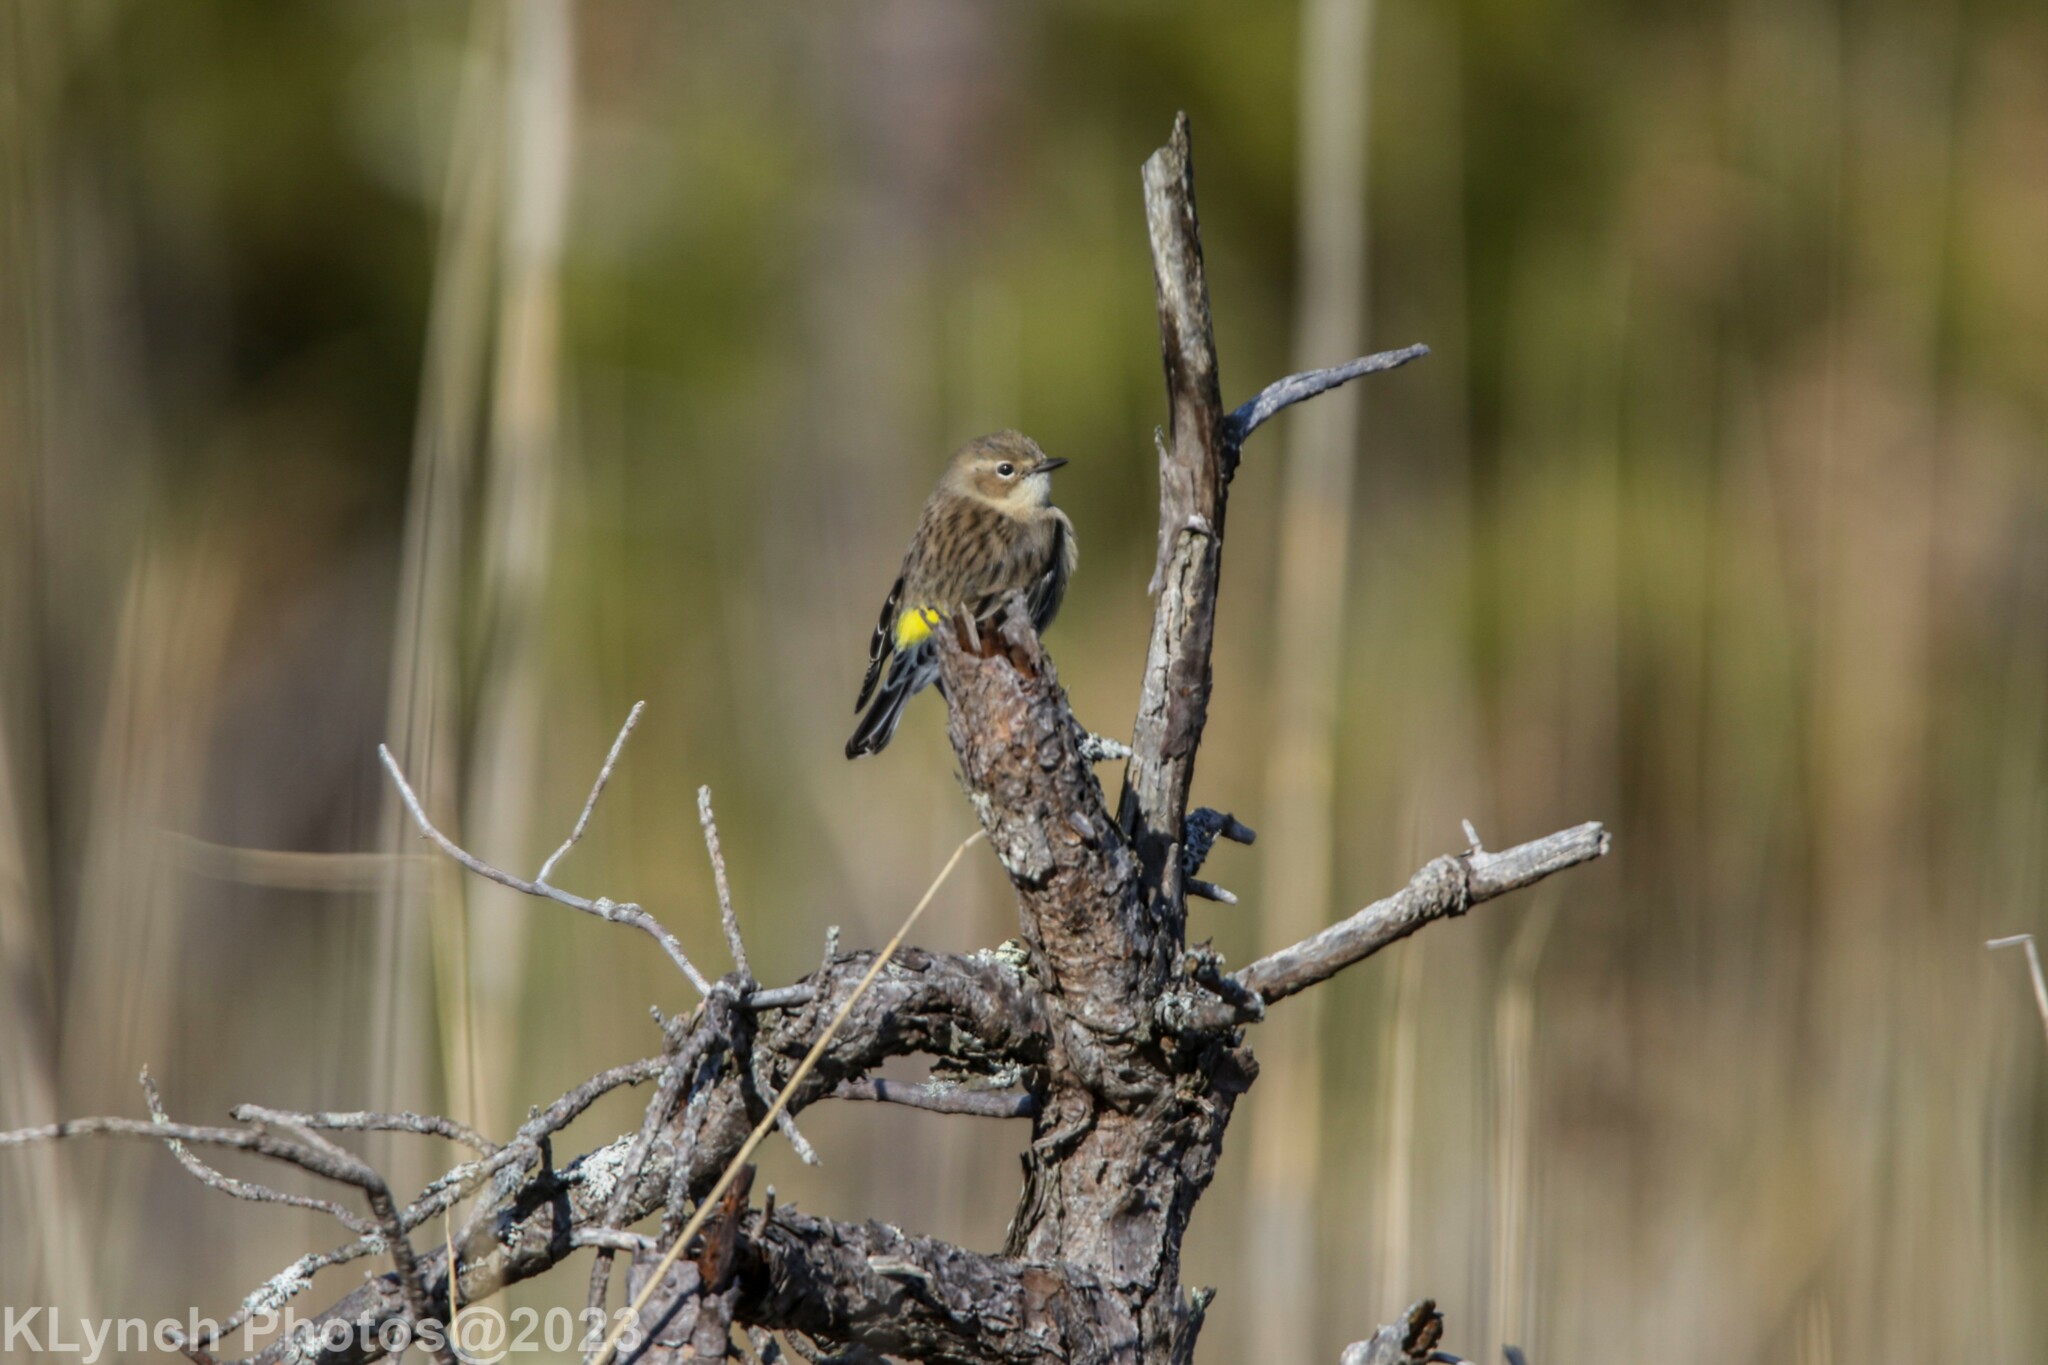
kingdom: Animalia
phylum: Chordata
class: Aves
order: Passeriformes
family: Parulidae
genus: Setophaga
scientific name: Setophaga coronata
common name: Myrtle warbler
